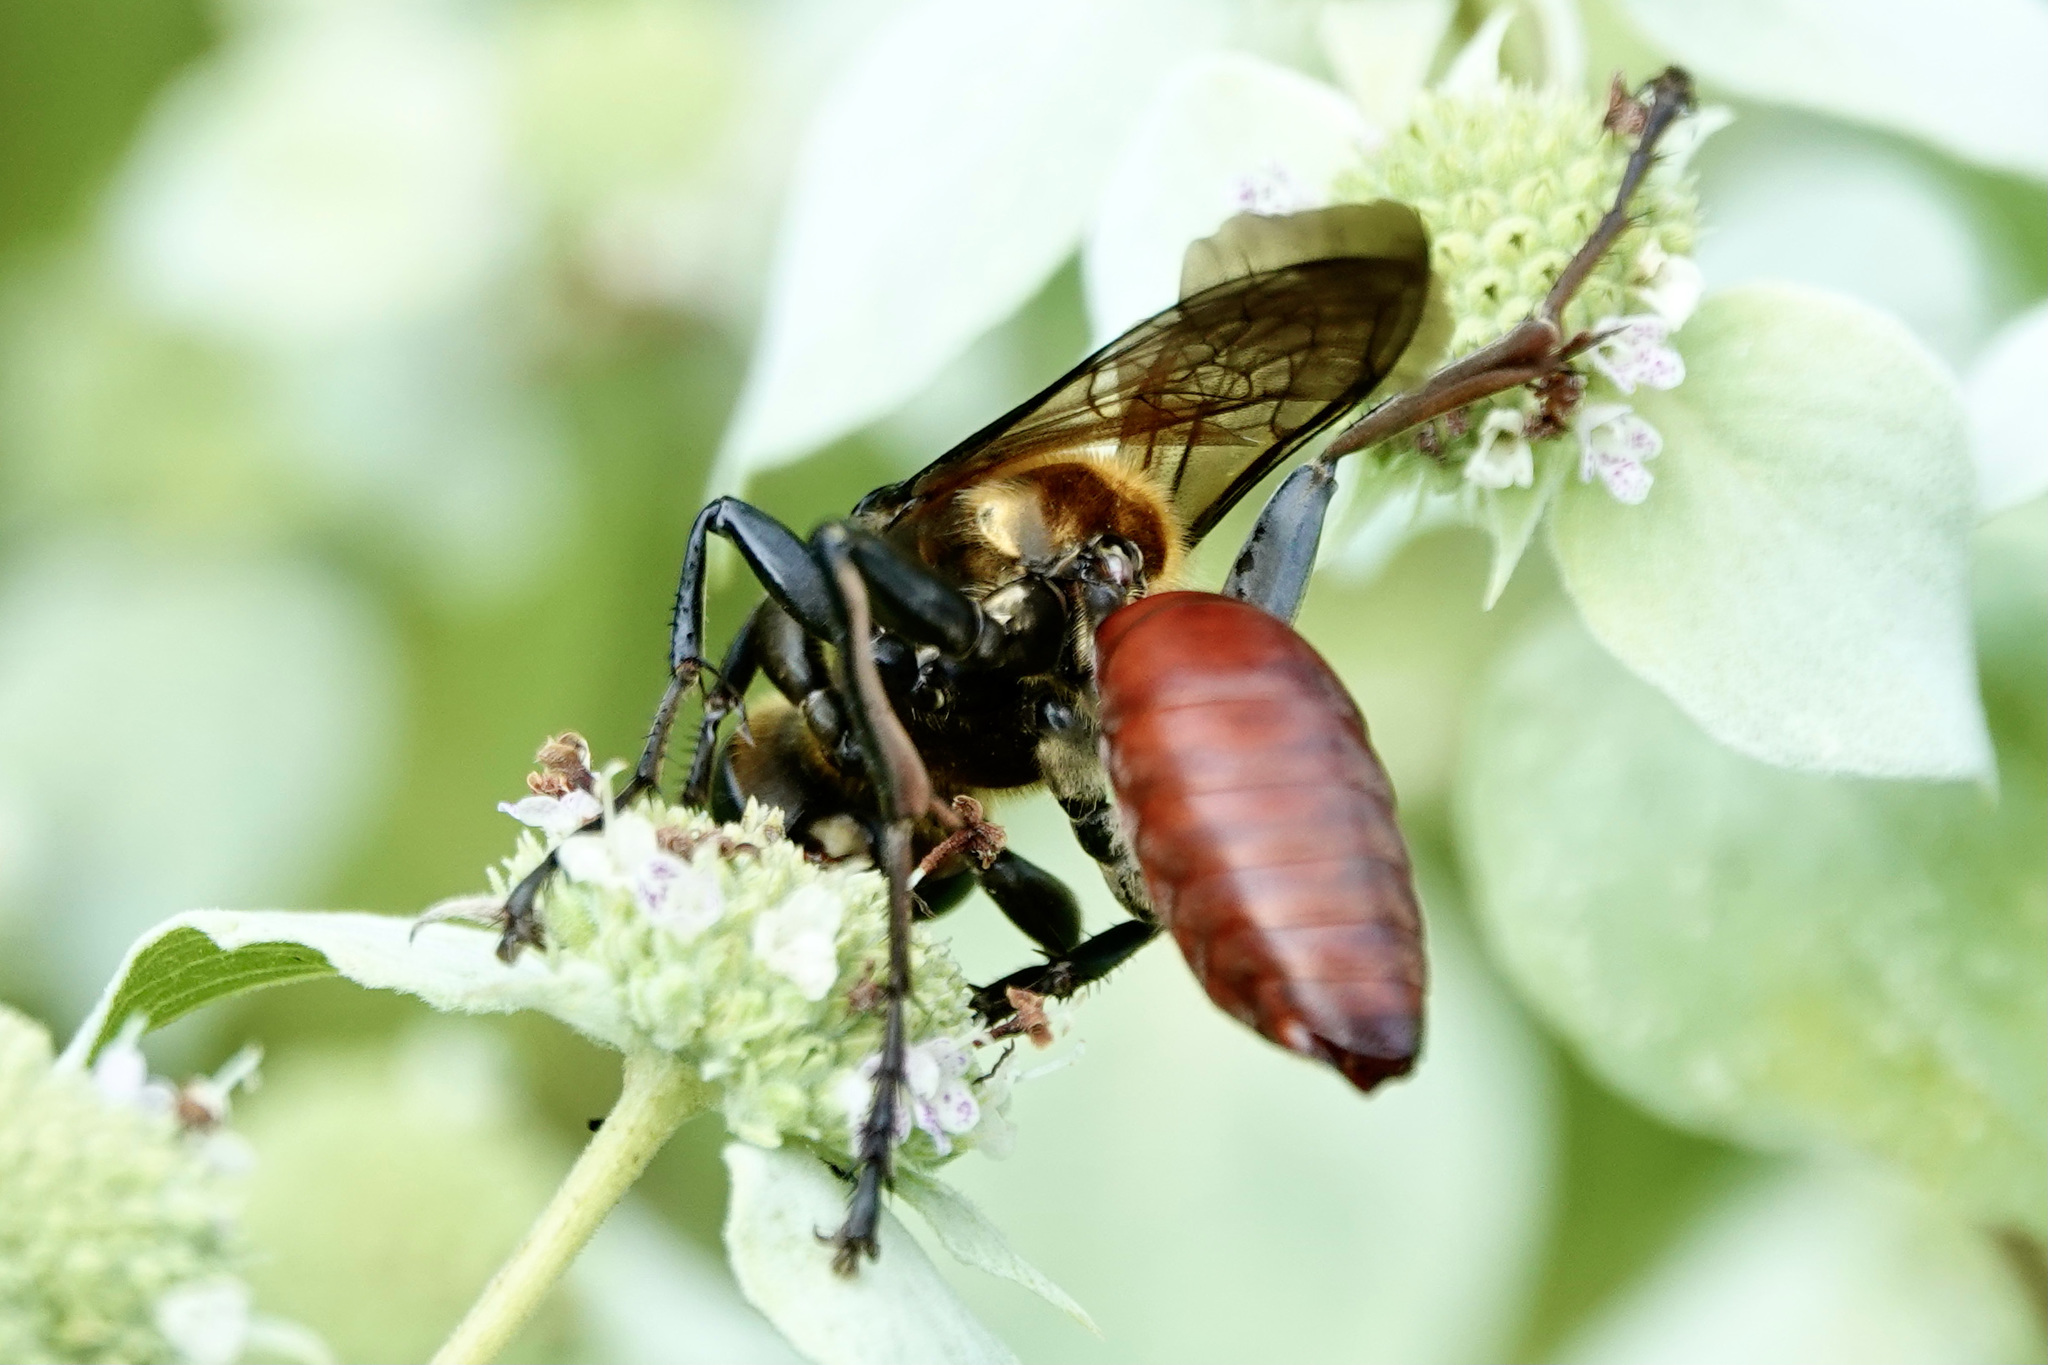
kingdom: Animalia
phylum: Arthropoda
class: Insecta
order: Hymenoptera
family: Sphecidae
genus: Sphex
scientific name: Sphex habenus
